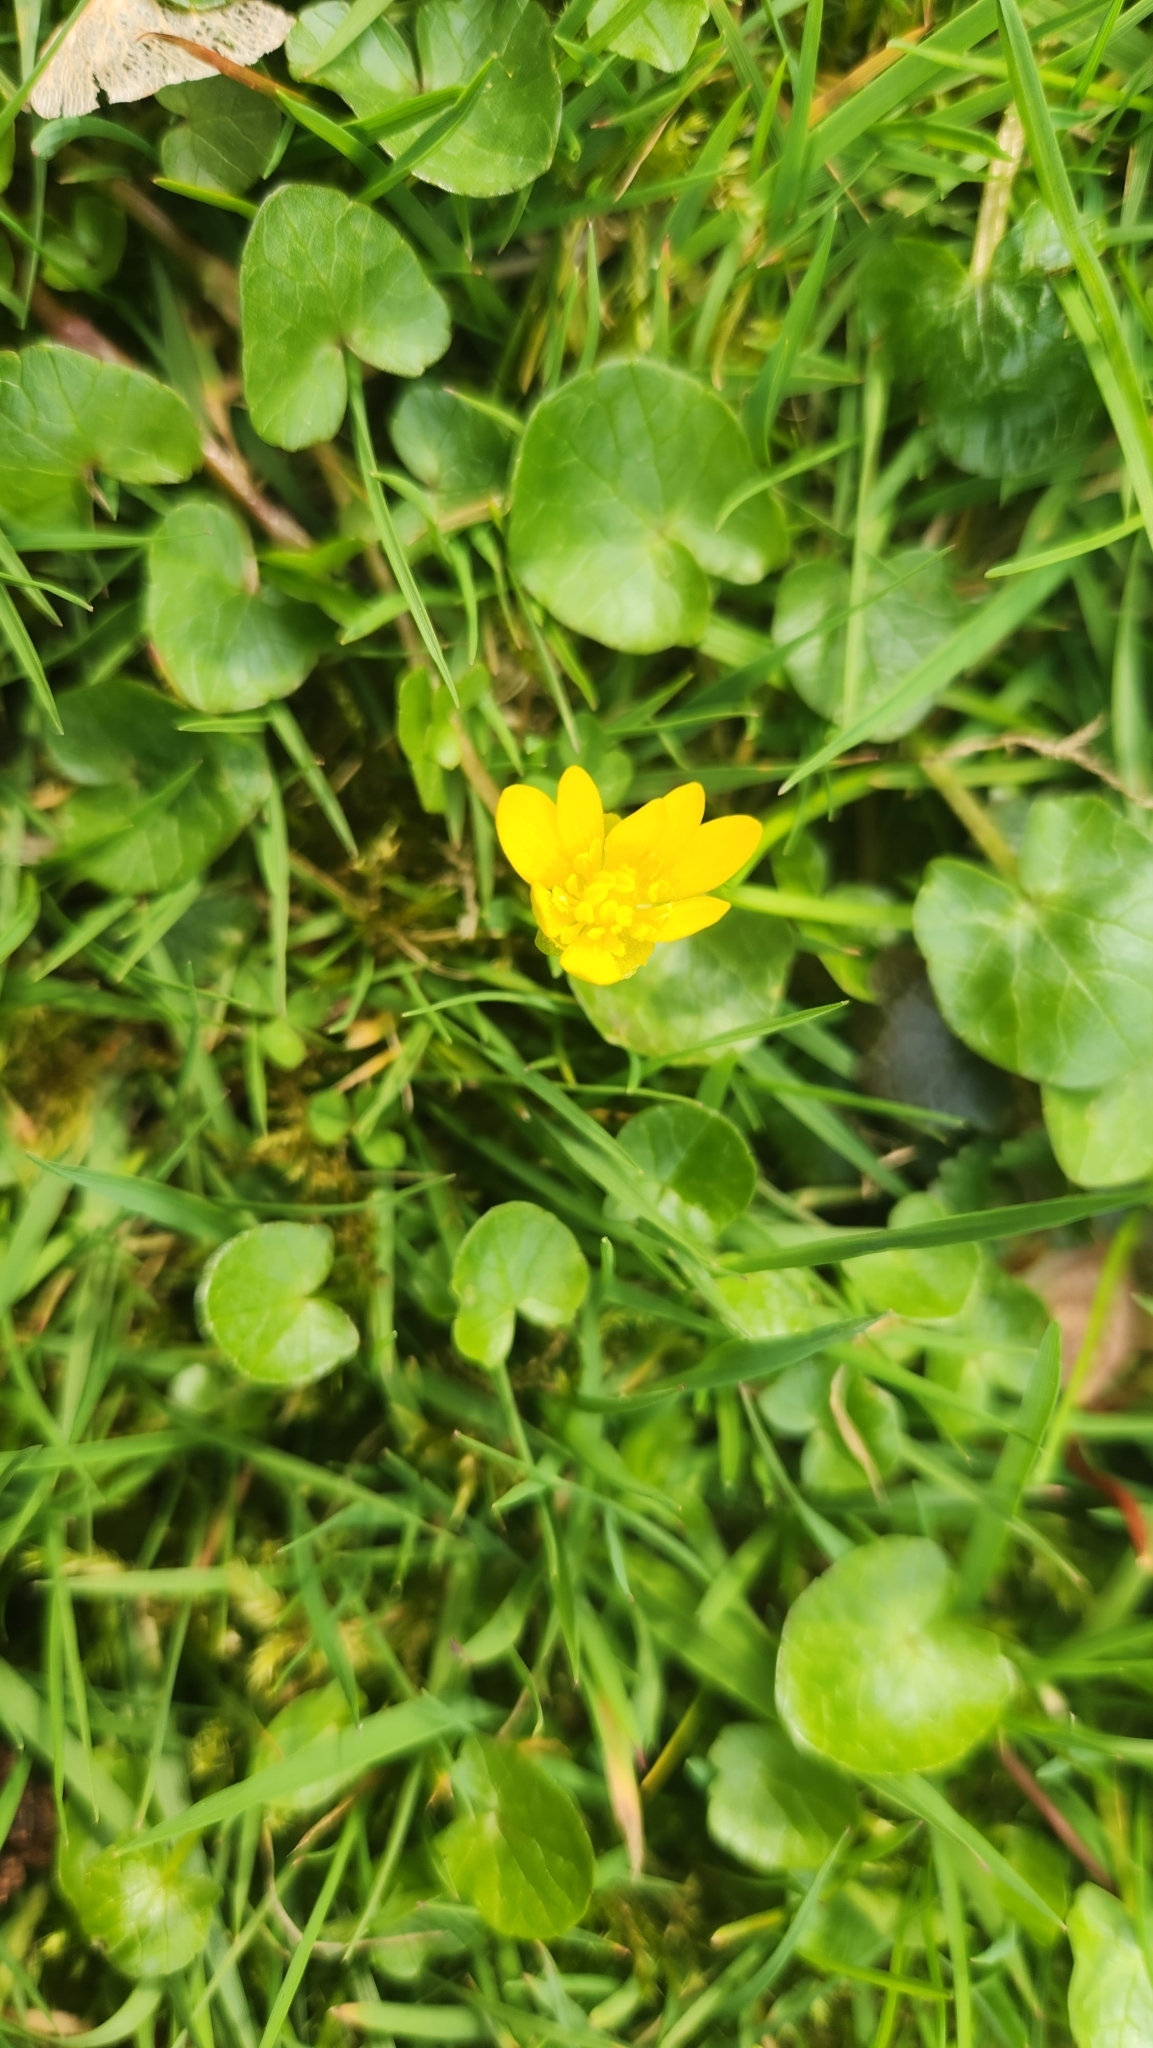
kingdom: Plantae
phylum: Tracheophyta
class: Magnoliopsida
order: Ranunculales
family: Ranunculaceae
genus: Ficaria
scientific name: Ficaria verna
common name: Lesser celandine
